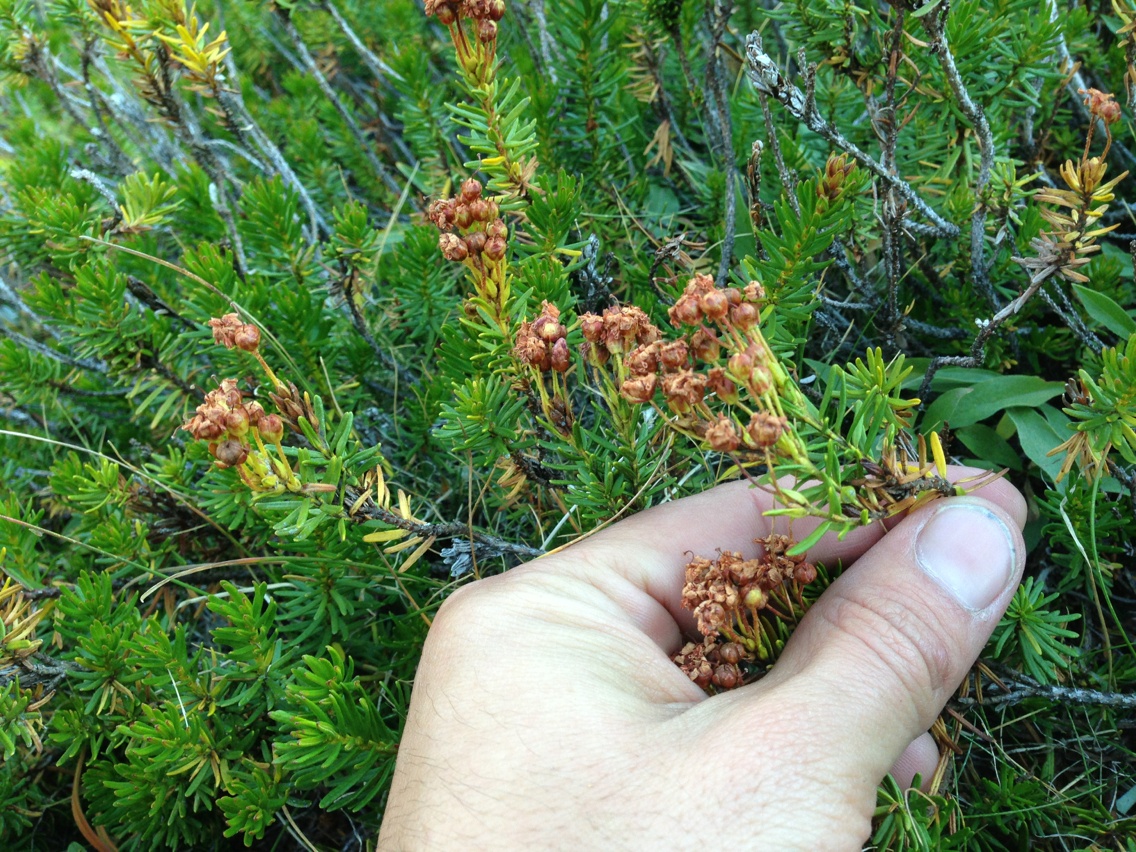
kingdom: Plantae
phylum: Tracheophyta
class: Magnoliopsida
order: Ericales
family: Ericaceae
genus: Phyllodoce
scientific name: Phyllodoce breweri
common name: Brewer's mountain-heather
